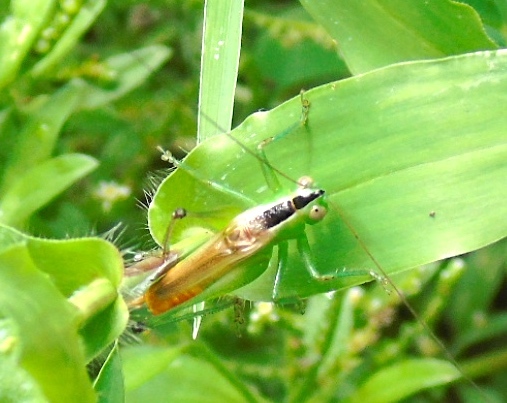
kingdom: Animalia
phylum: Arthropoda
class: Insecta
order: Orthoptera
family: Tettigoniidae
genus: Conocephalus
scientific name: Conocephalus
